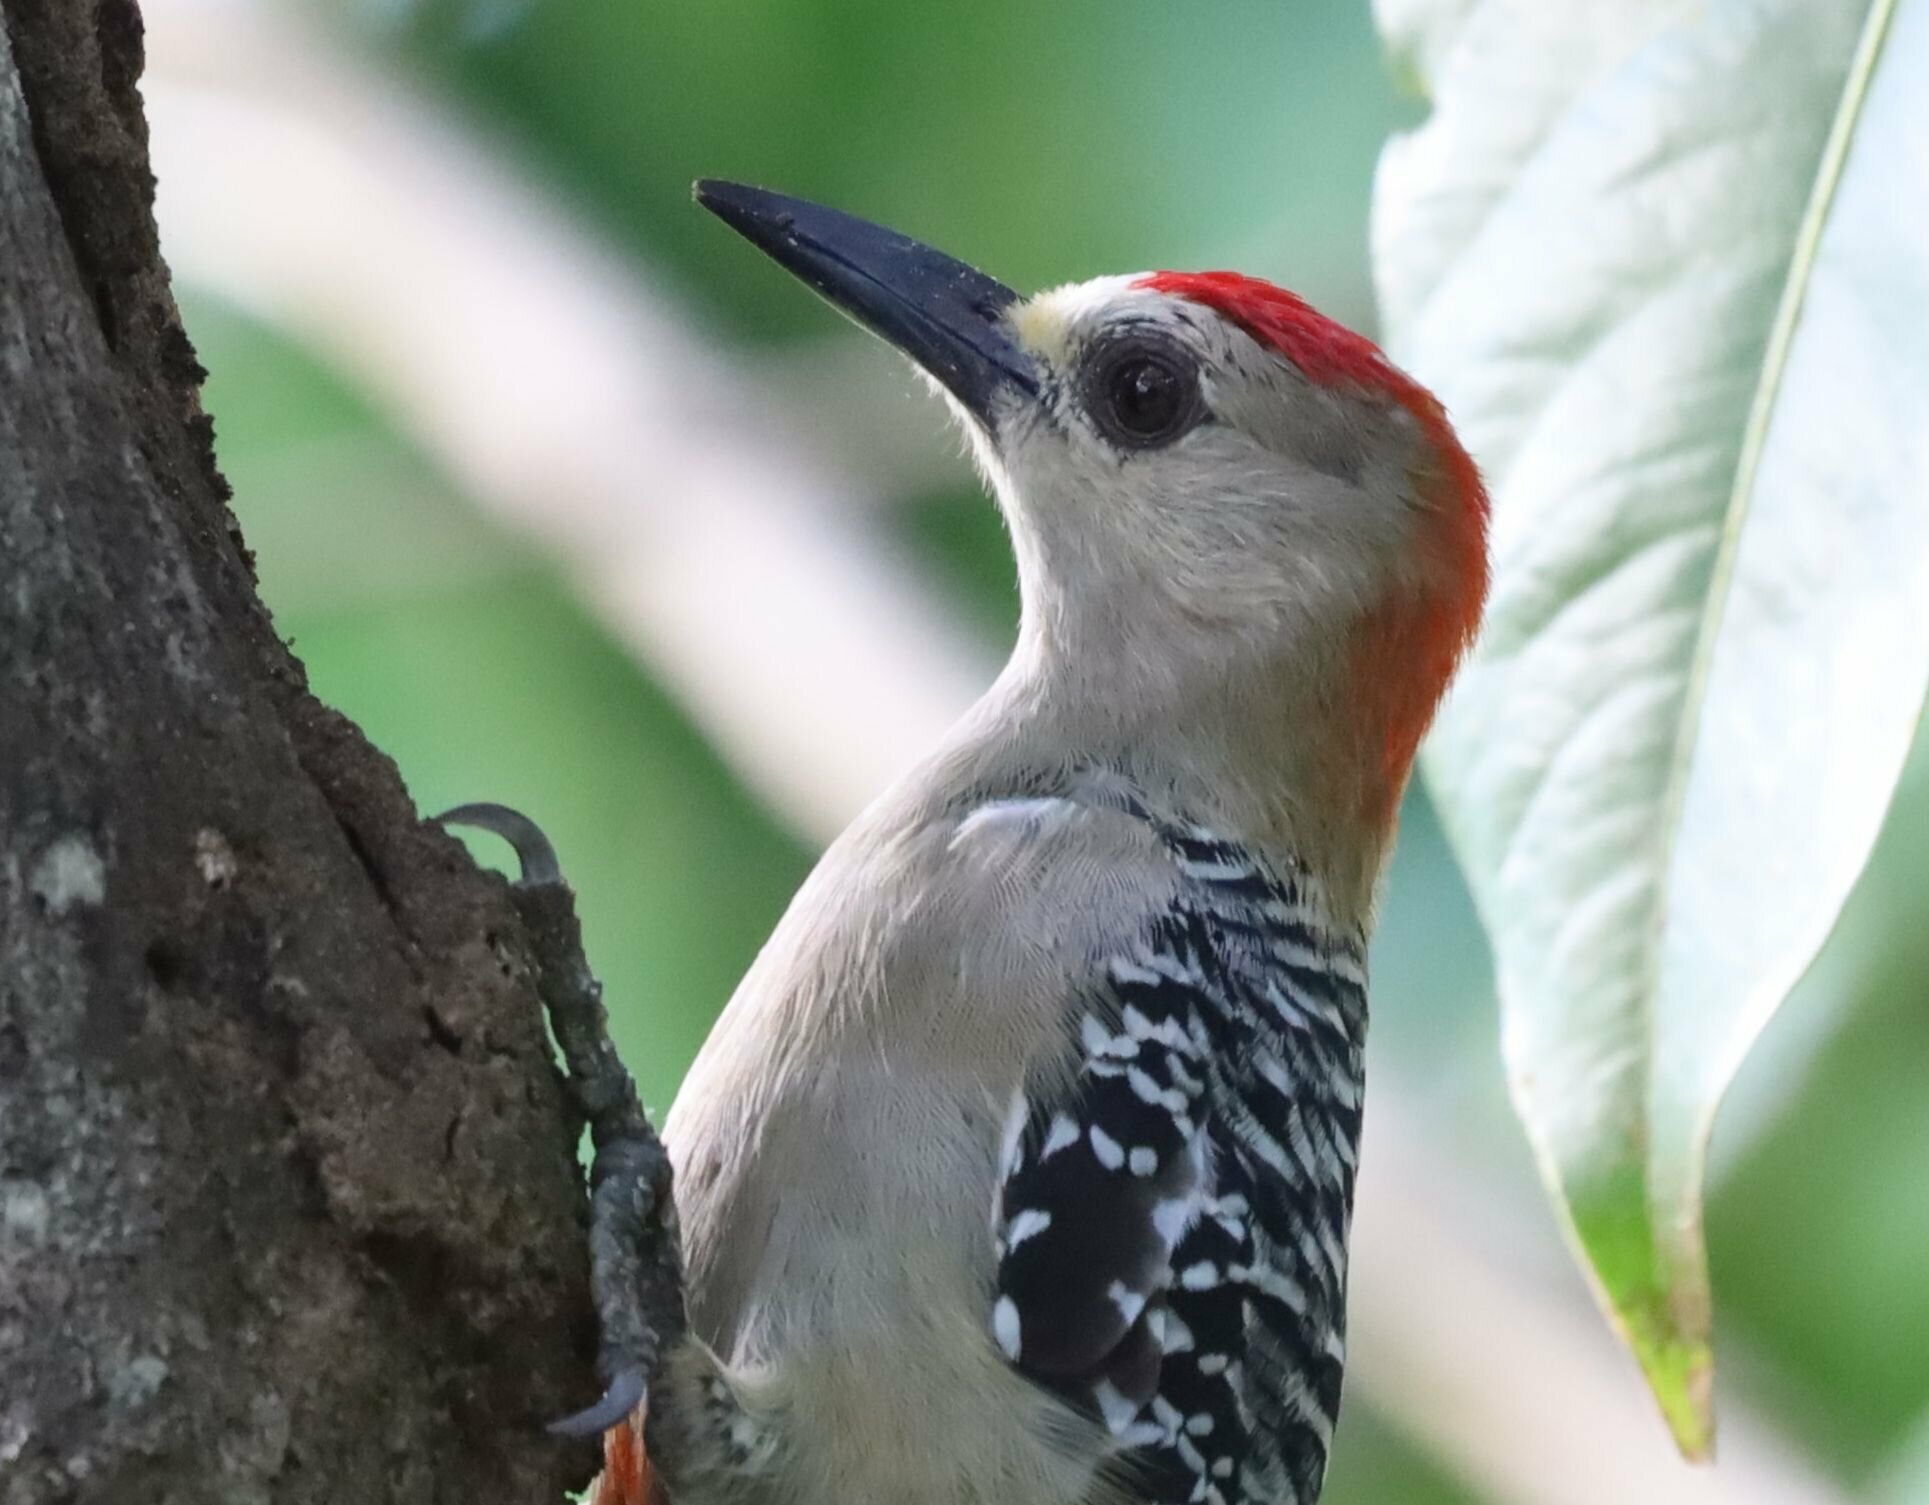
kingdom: Animalia
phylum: Chordata
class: Aves
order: Piciformes
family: Picidae
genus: Melanerpes
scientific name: Melanerpes rubricapillus
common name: Red-crowned woodpecker
